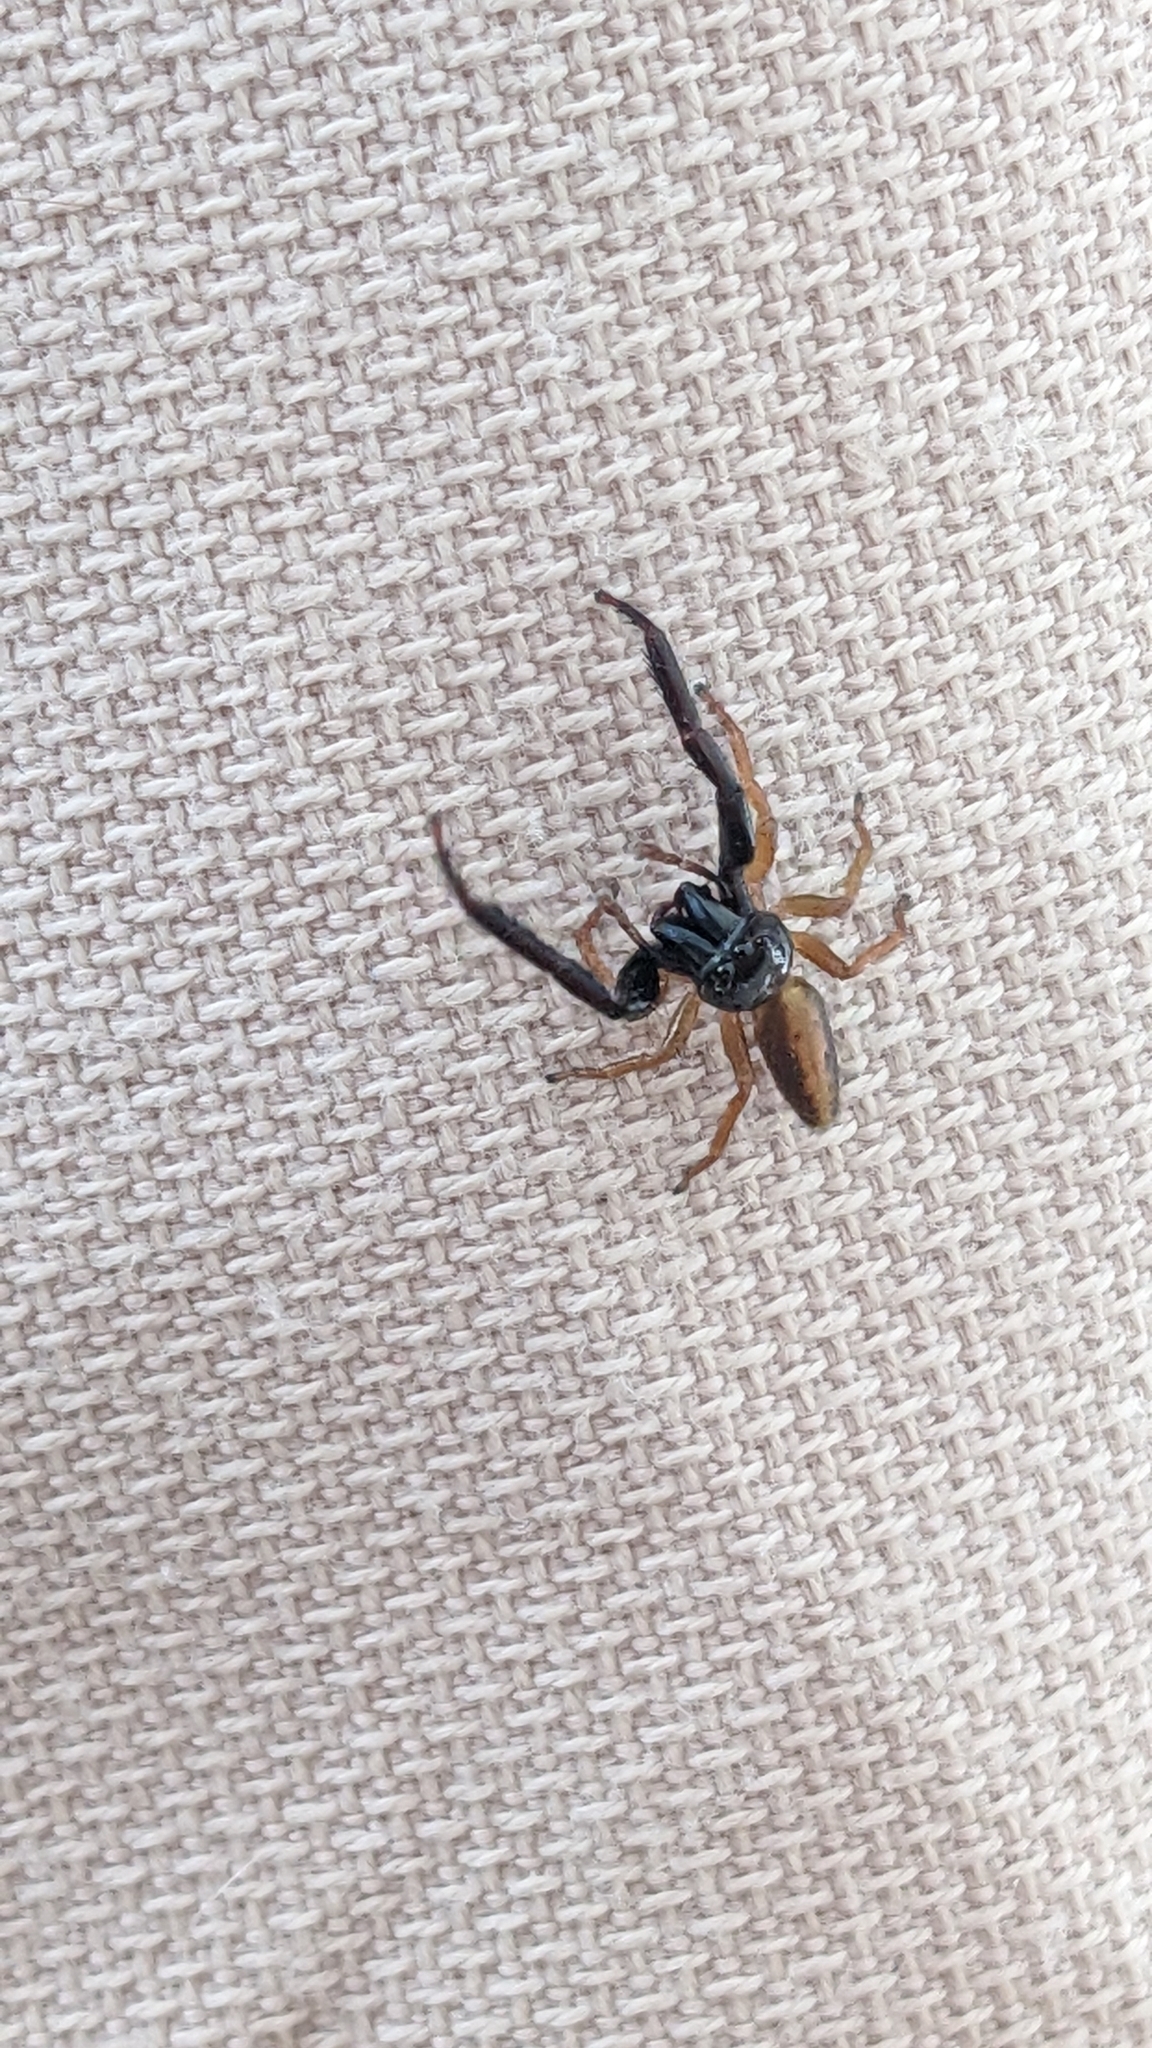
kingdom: Animalia
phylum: Arthropoda
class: Arachnida
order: Araneae
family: Salticidae
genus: Trite
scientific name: Trite planiceps
